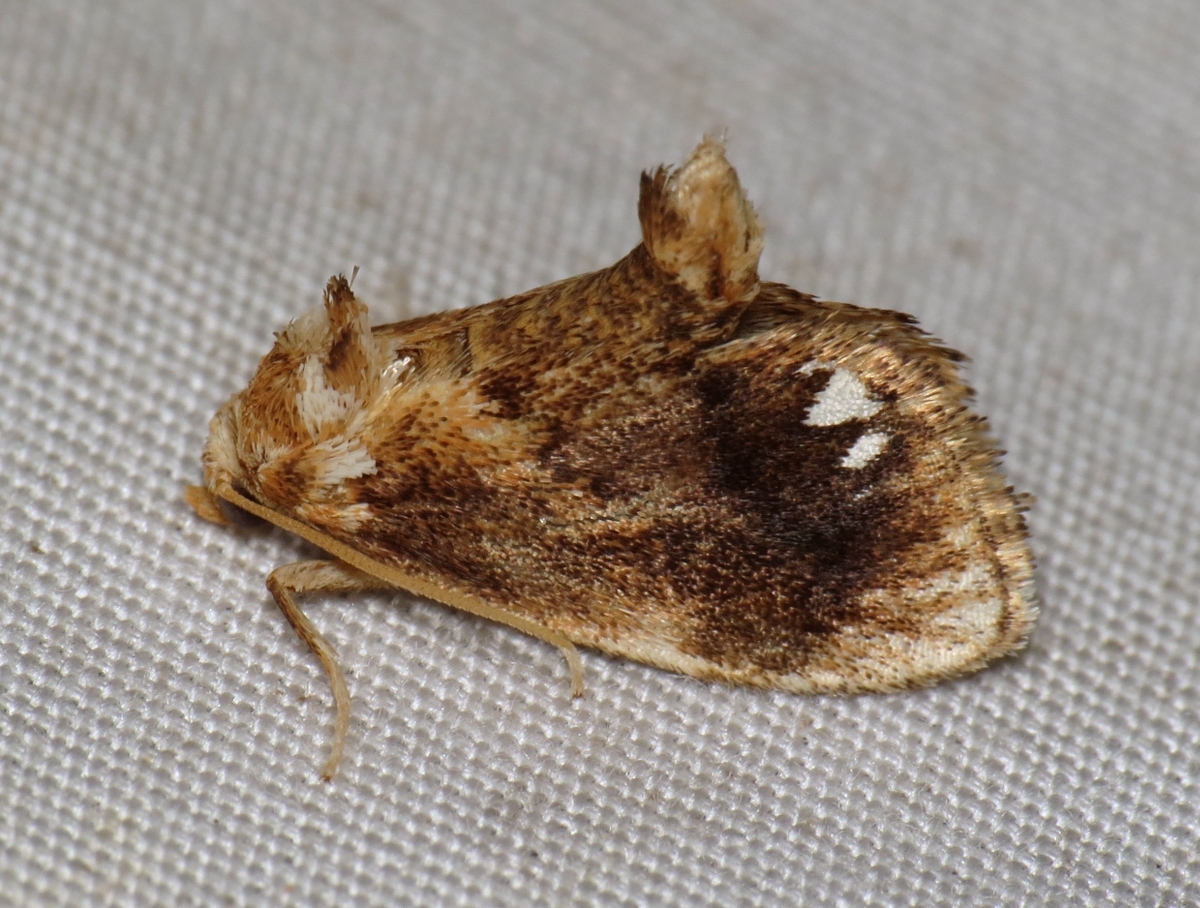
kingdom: Animalia
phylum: Arthropoda
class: Insecta
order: Lepidoptera
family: Limacodidae
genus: Packardia
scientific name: Packardia geminata
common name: Jeweled tailed slug moth
